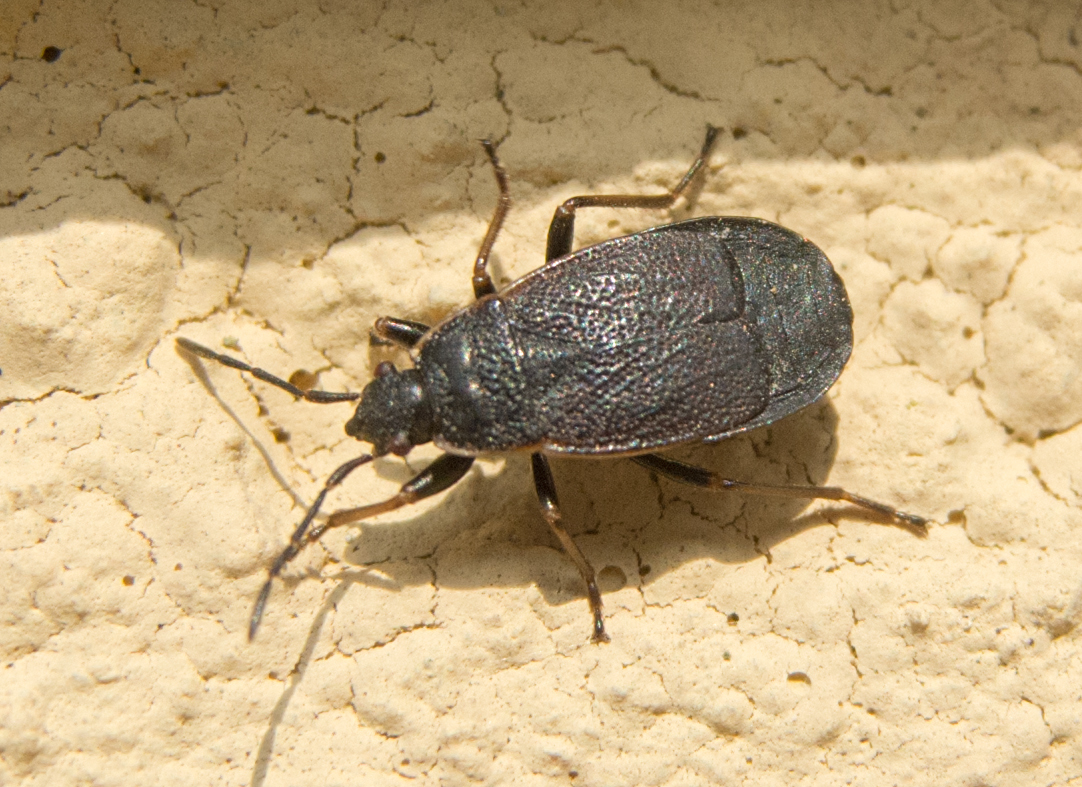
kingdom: Animalia
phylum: Arthropoda
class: Insecta
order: Hemiptera
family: Pyrrhocoridae
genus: Pyrrhocoris
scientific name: Pyrrhocoris marginatus
